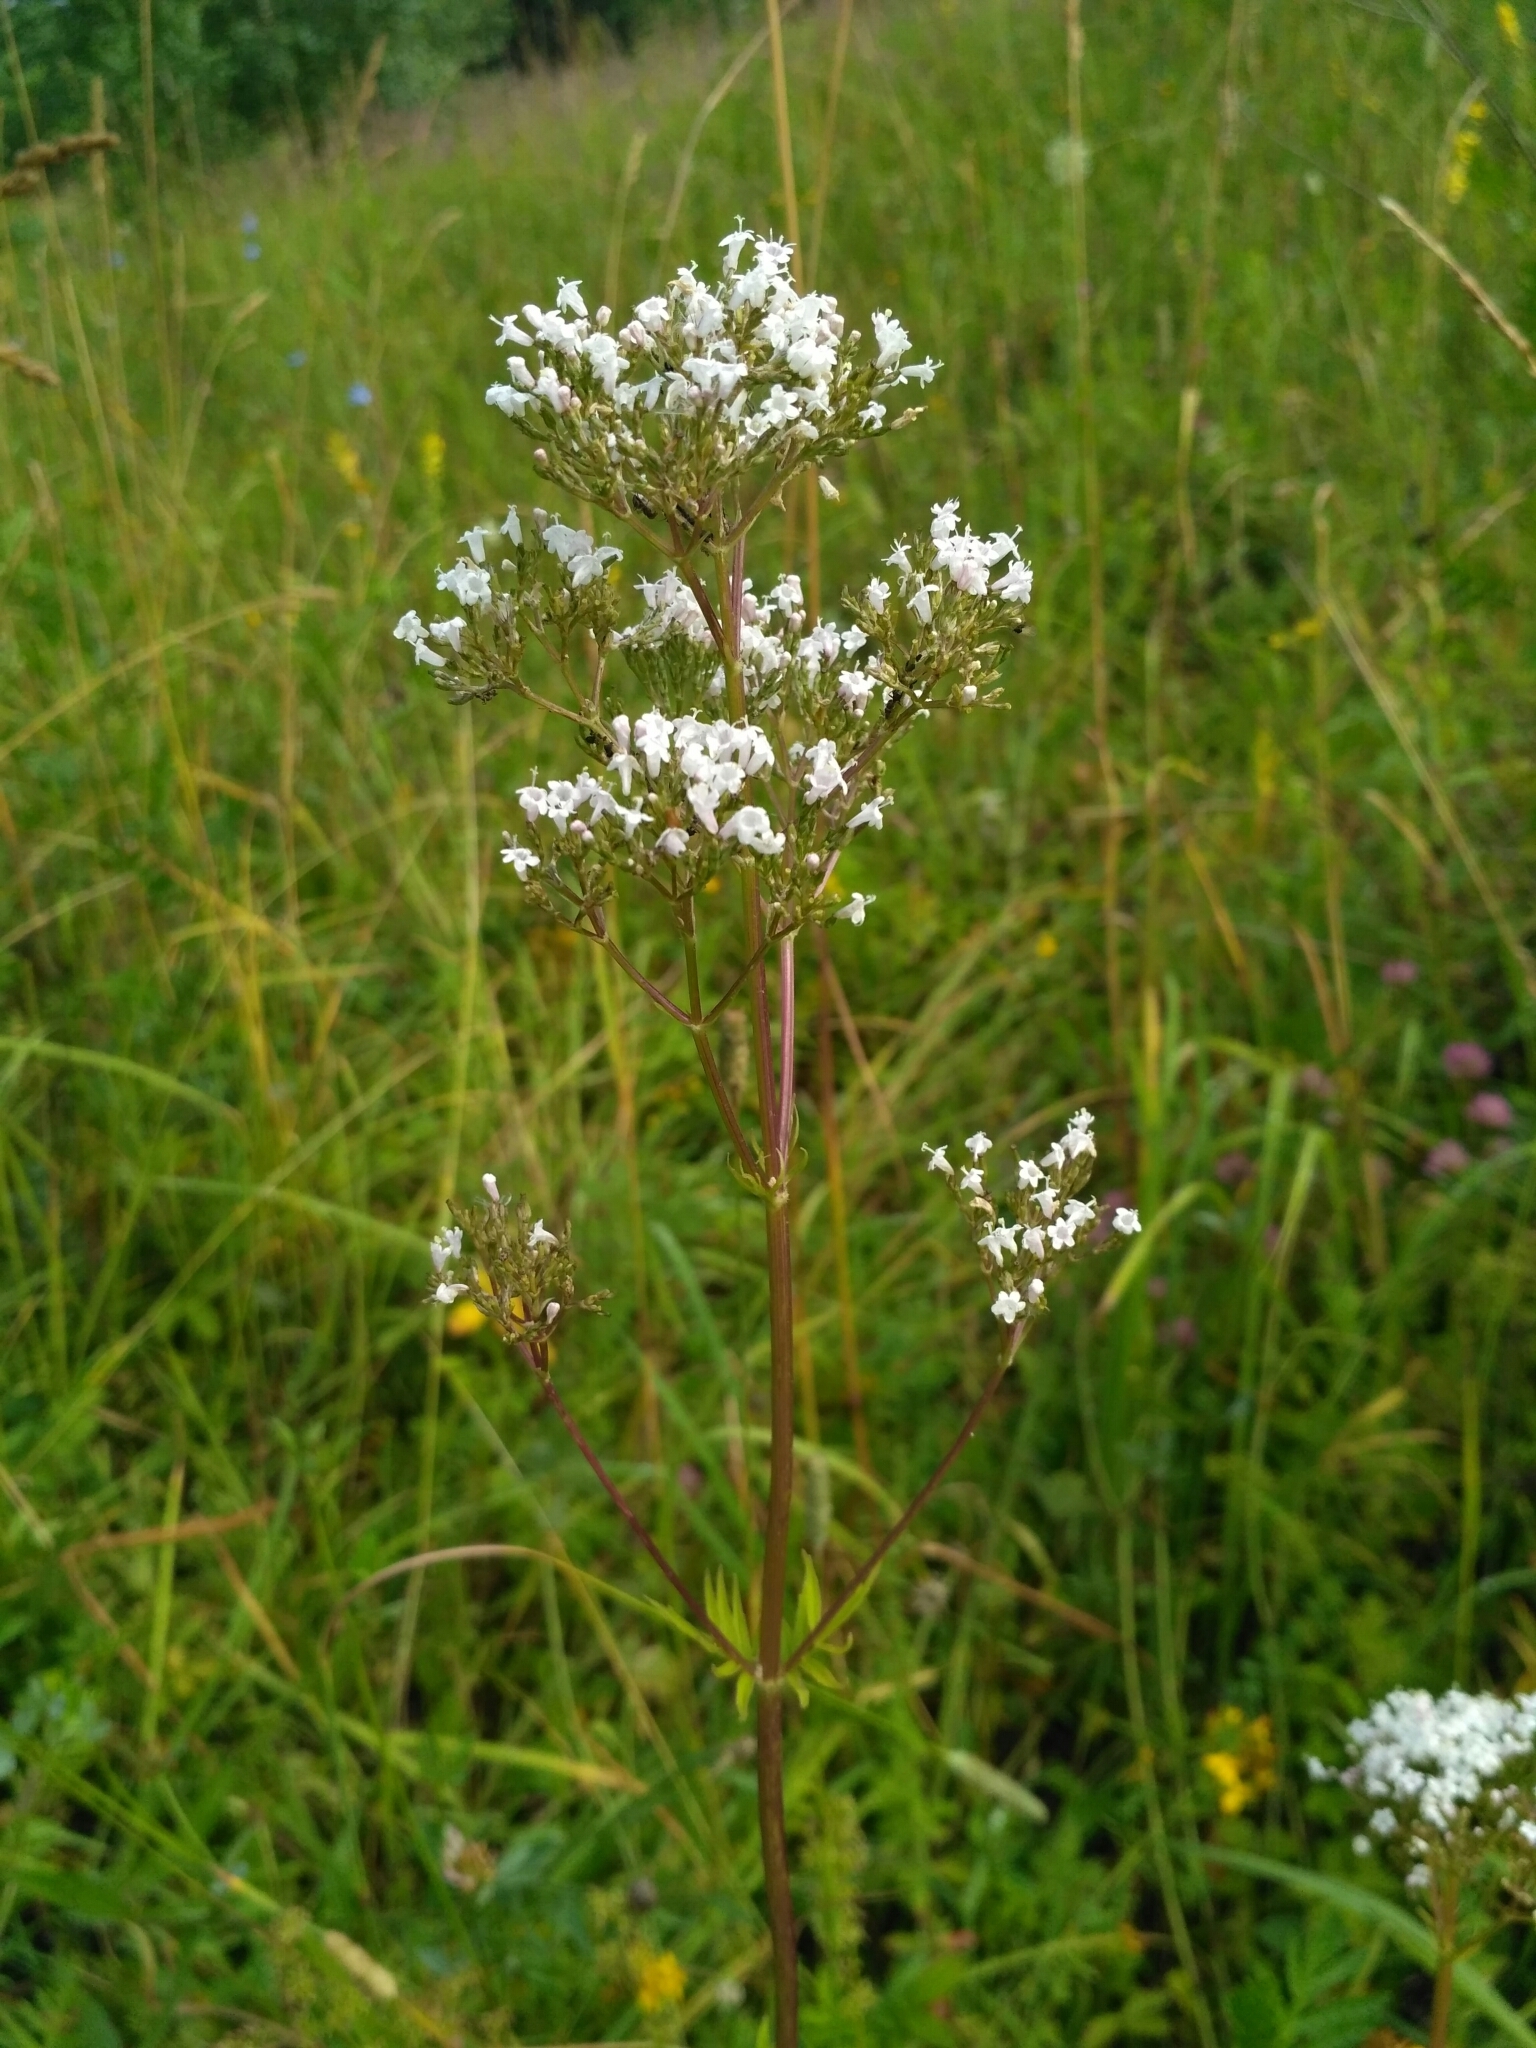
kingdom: Plantae
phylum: Tracheophyta
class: Magnoliopsida
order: Dipsacales
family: Caprifoliaceae
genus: Valeriana
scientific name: Valeriana officinalis
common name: Common valerian
